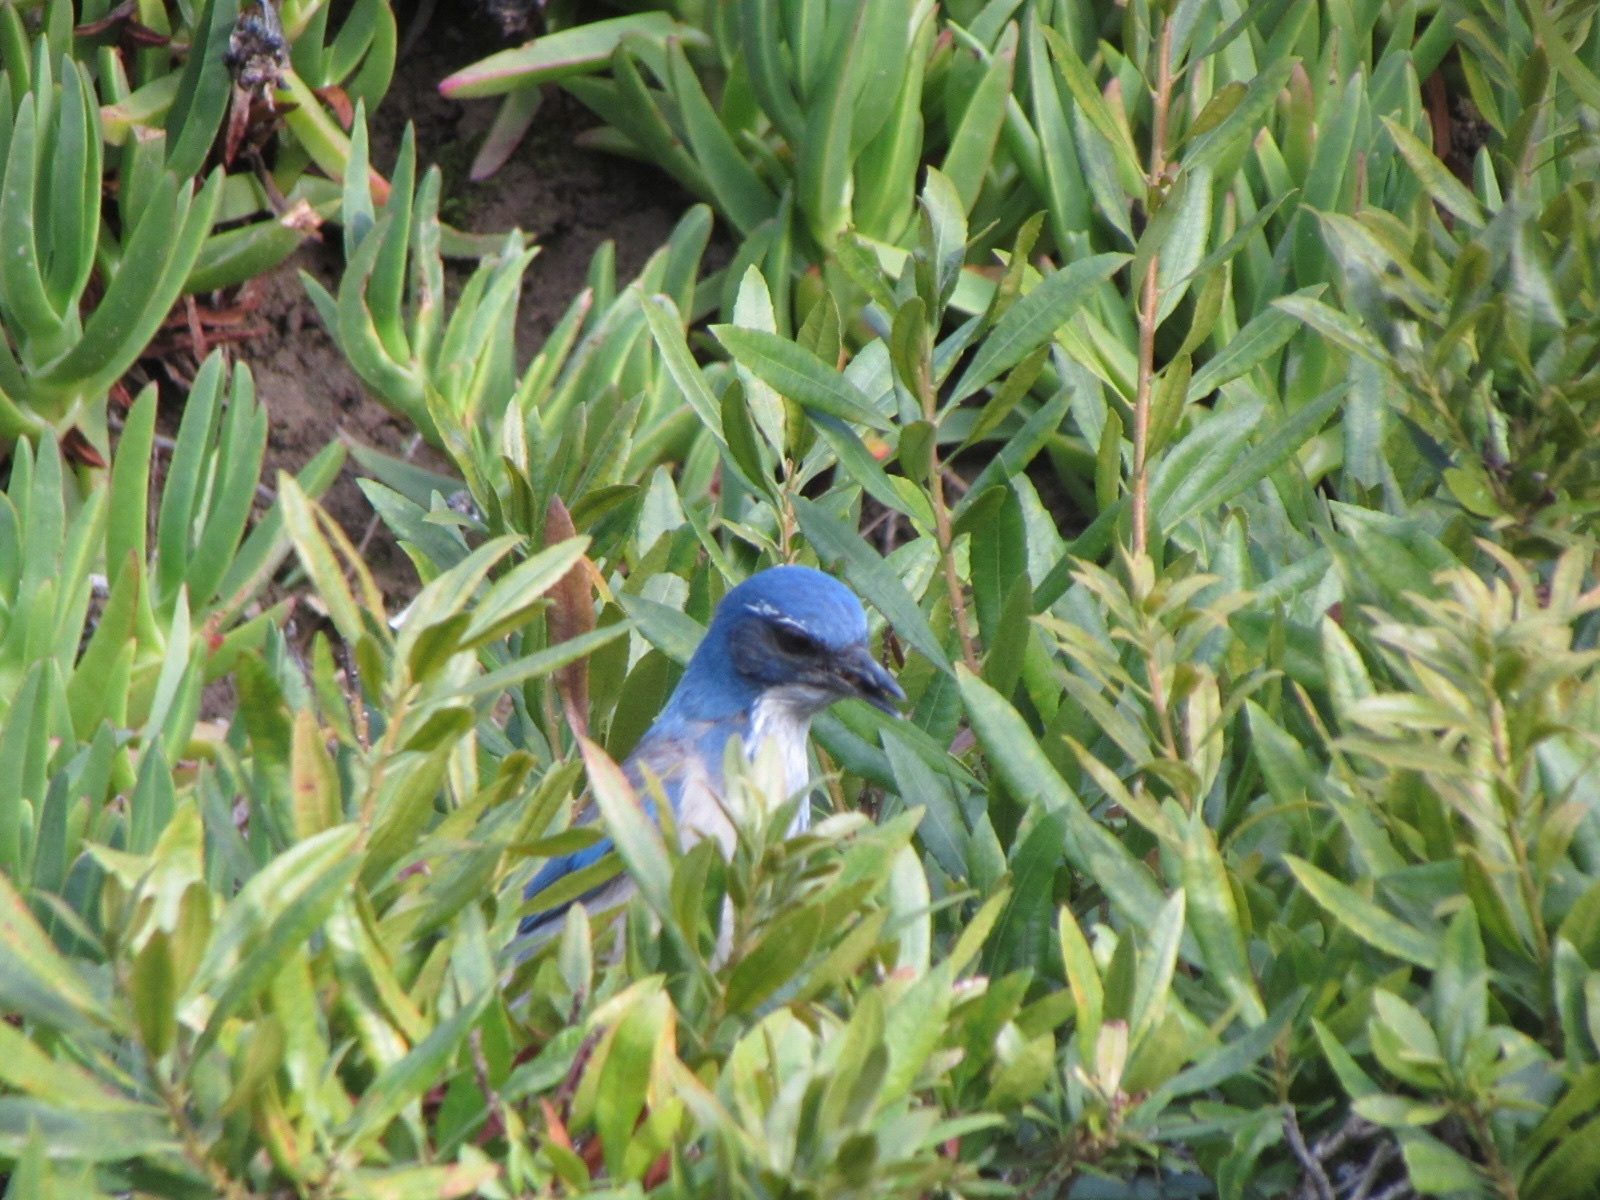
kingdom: Animalia
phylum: Chordata
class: Aves
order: Passeriformes
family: Corvidae
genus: Aphelocoma
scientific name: Aphelocoma californica
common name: California scrub-jay
